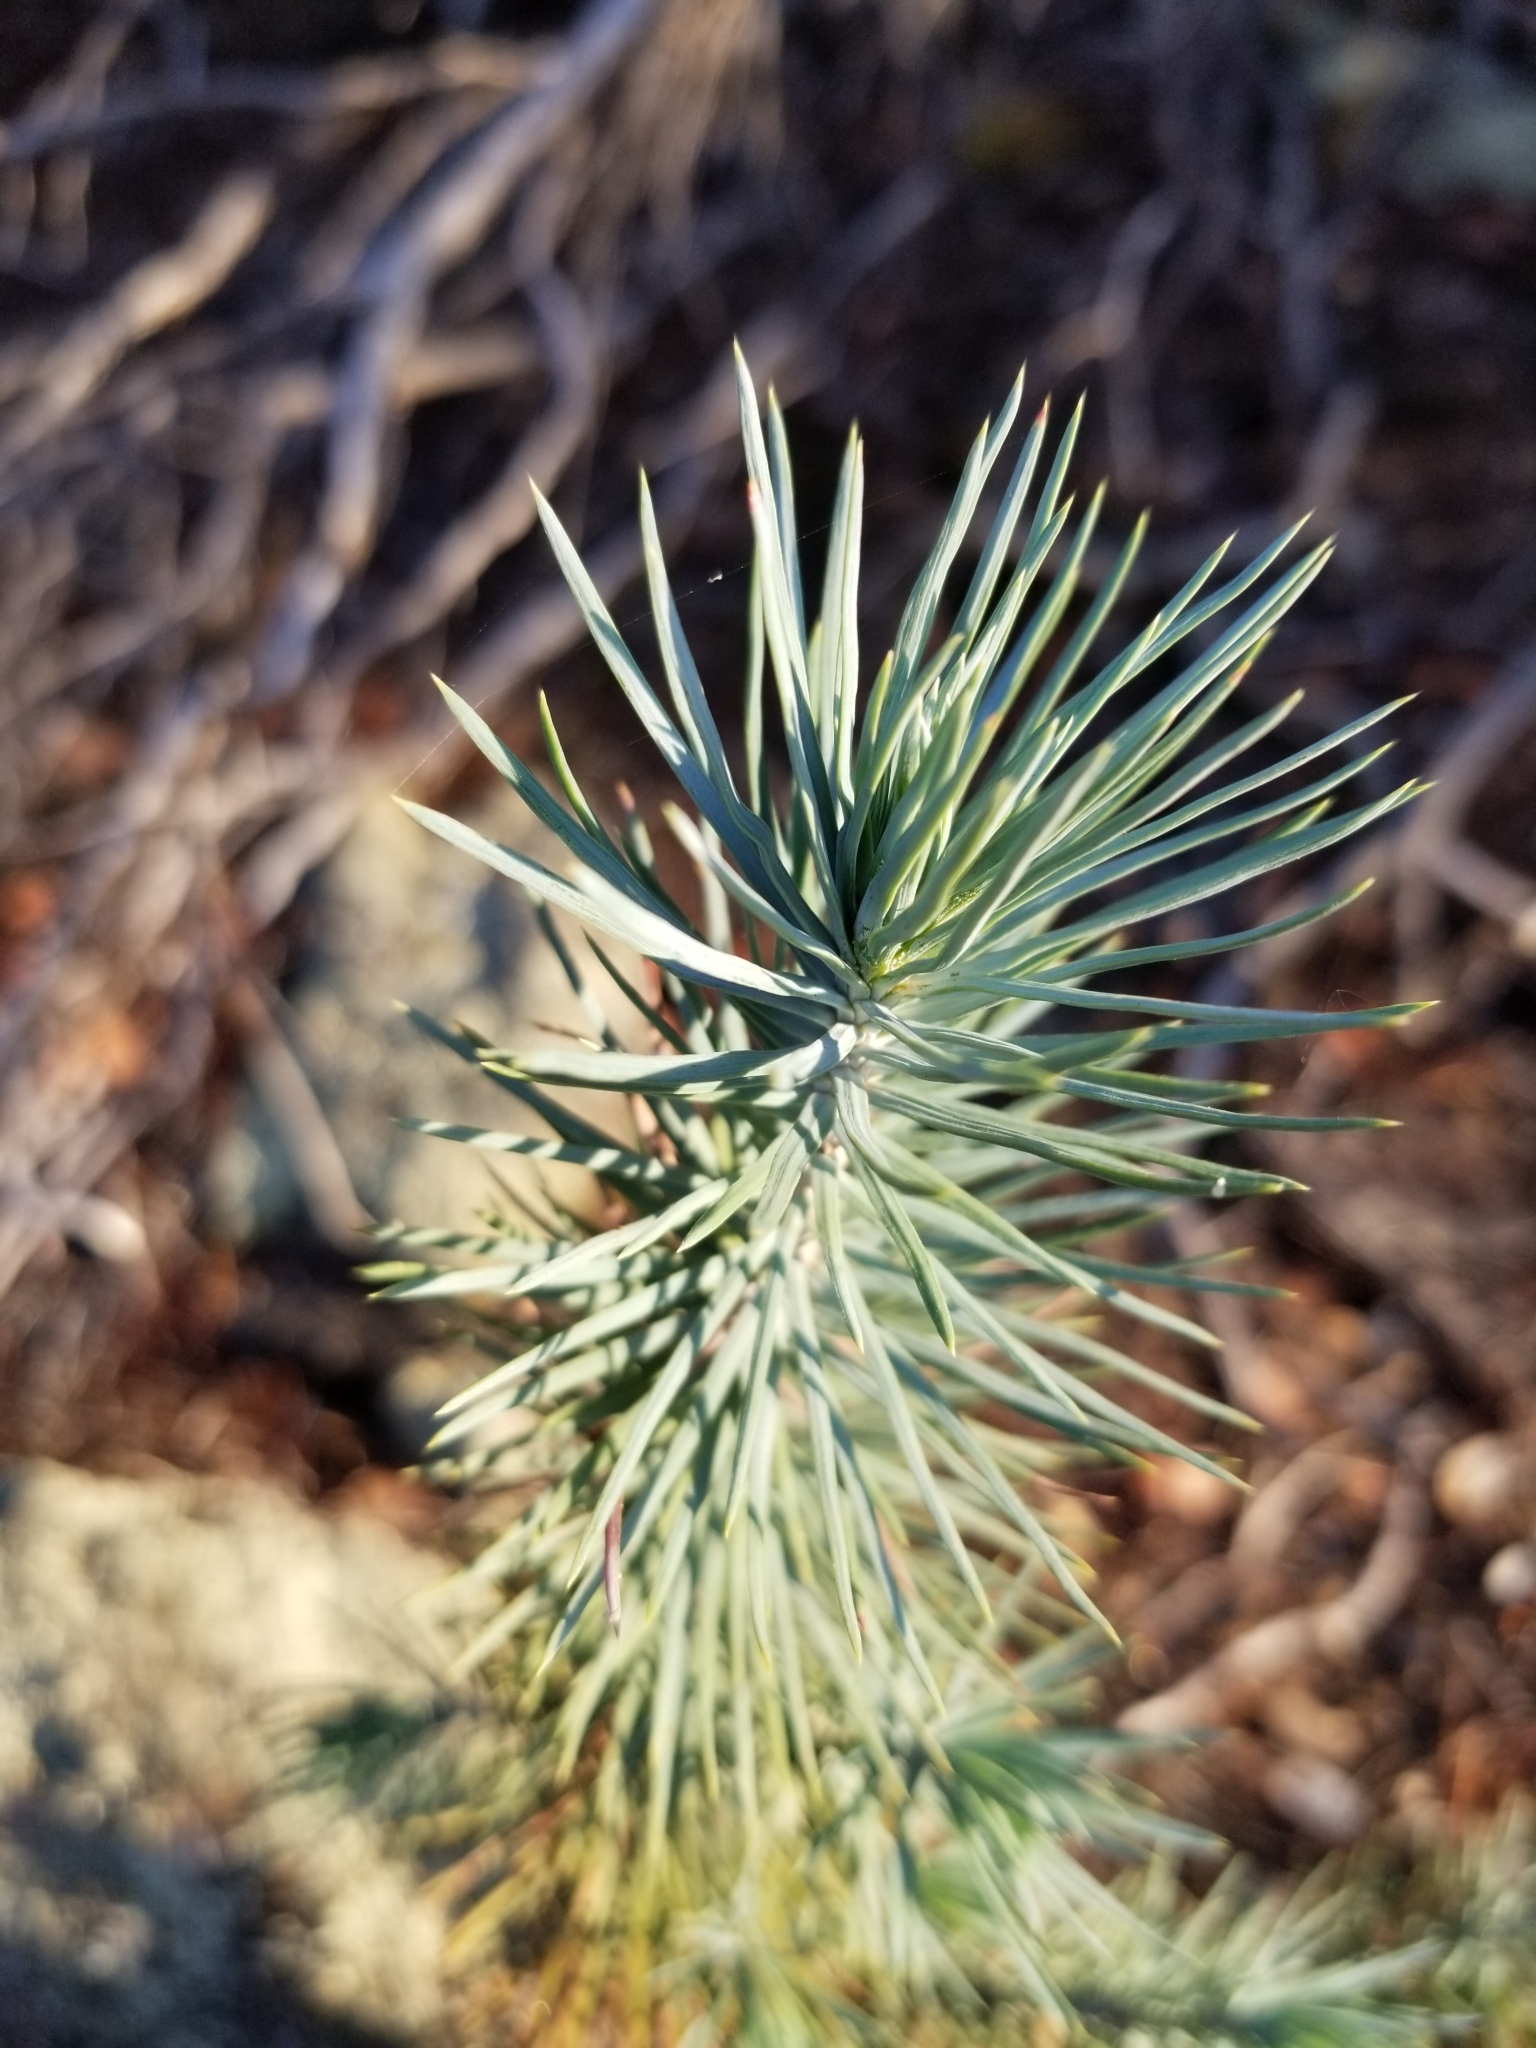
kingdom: Plantae
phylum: Tracheophyta
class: Pinopsida
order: Pinales
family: Pinaceae
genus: Pinus
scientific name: Pinus quadrifolia
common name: Parry pinyon
